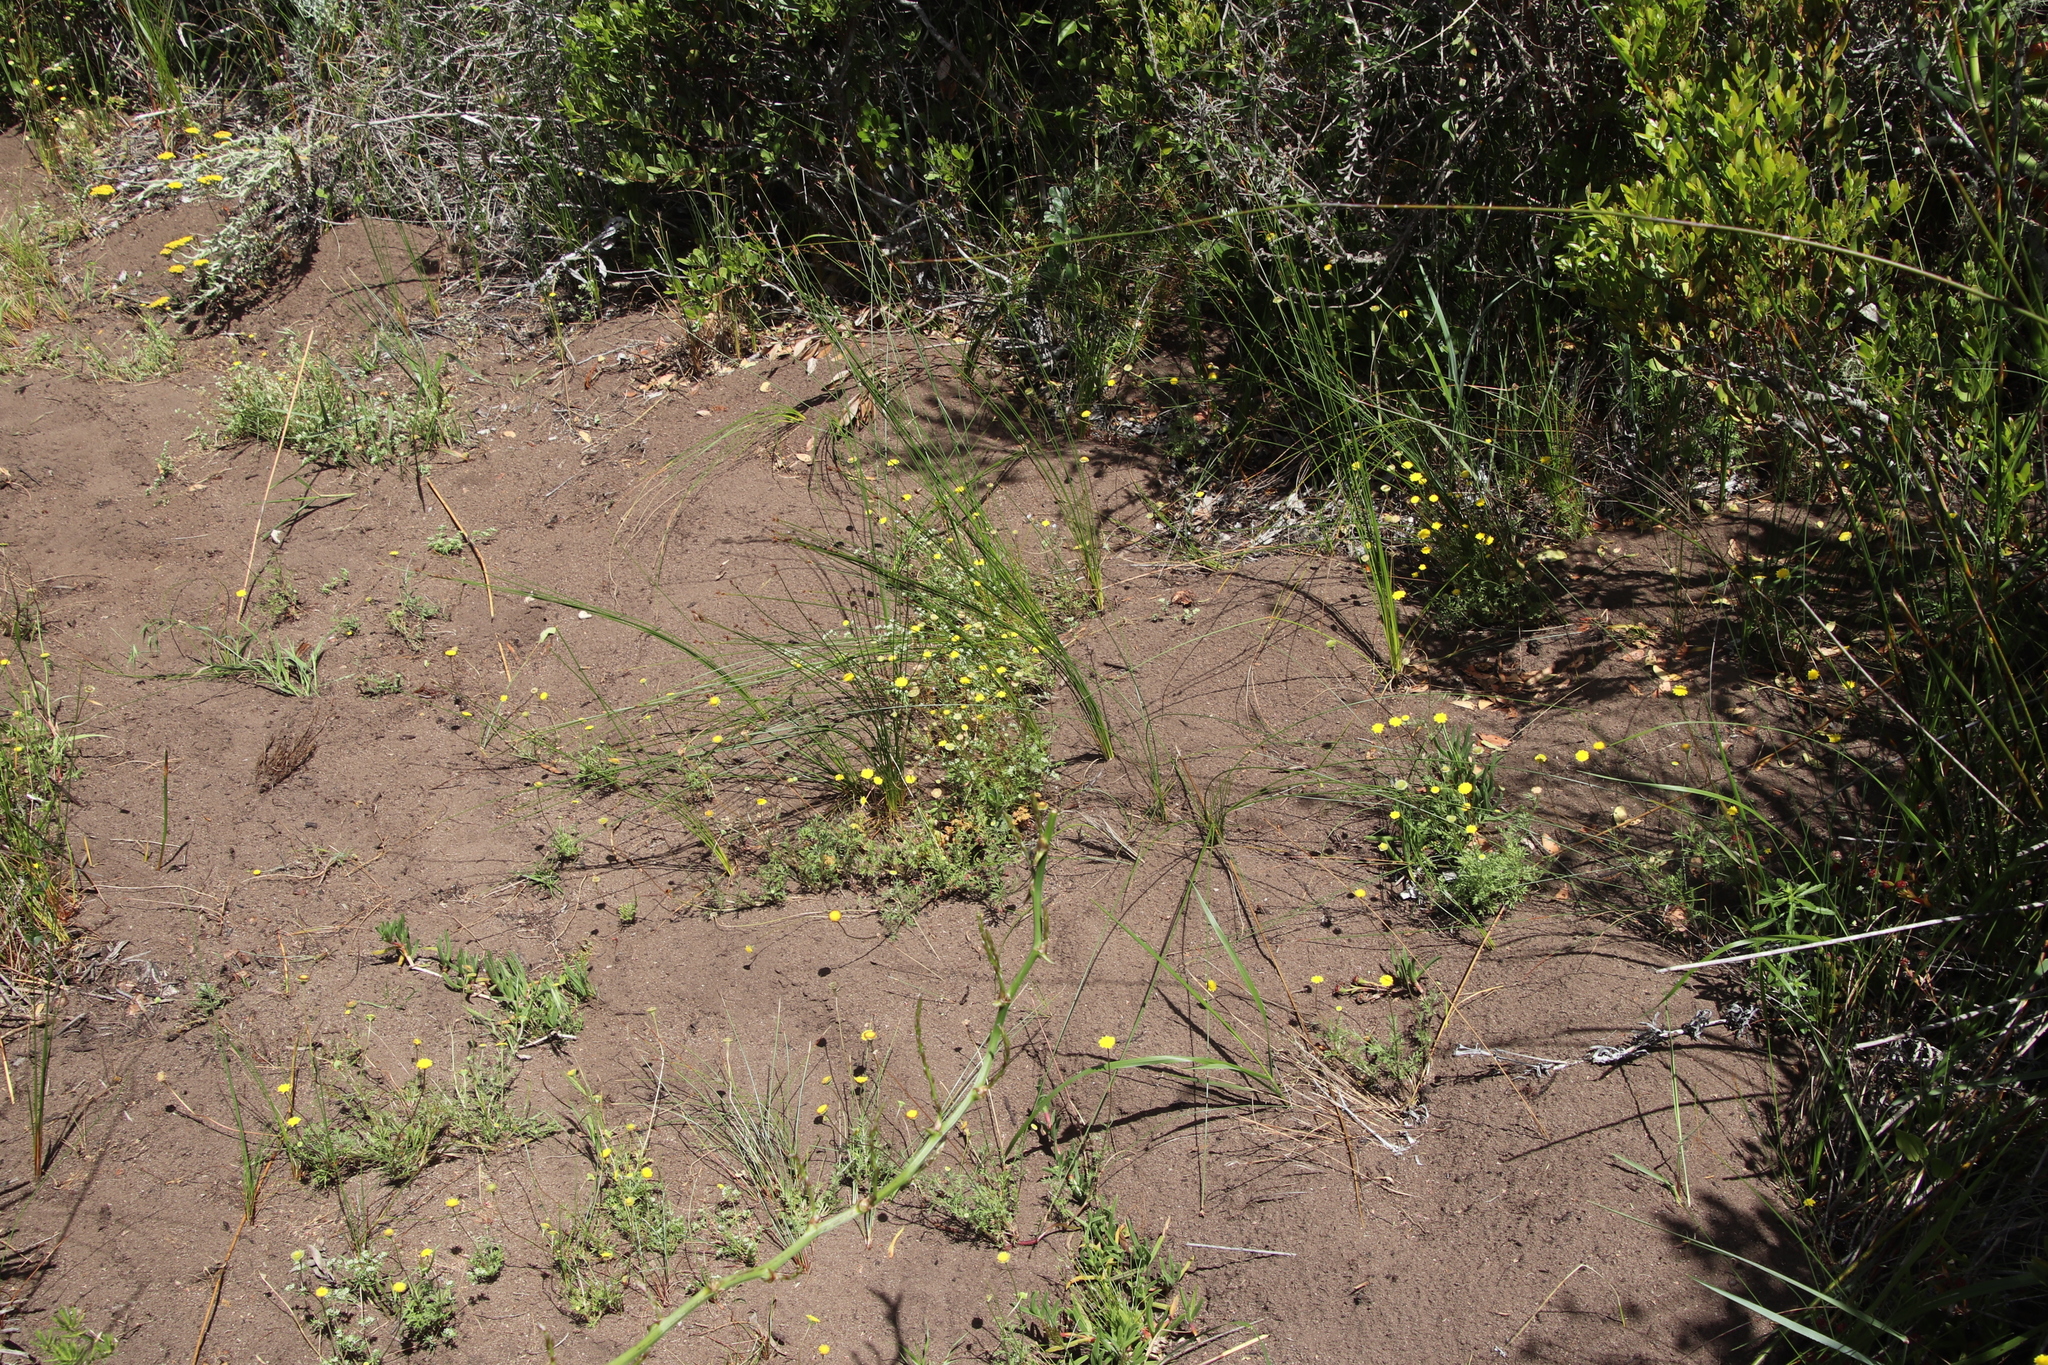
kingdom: Plantae
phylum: Tracheophyta
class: Magnoliopsida
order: Asterales
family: Asteraceae
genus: Cotula
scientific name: Cotula pruinosa
